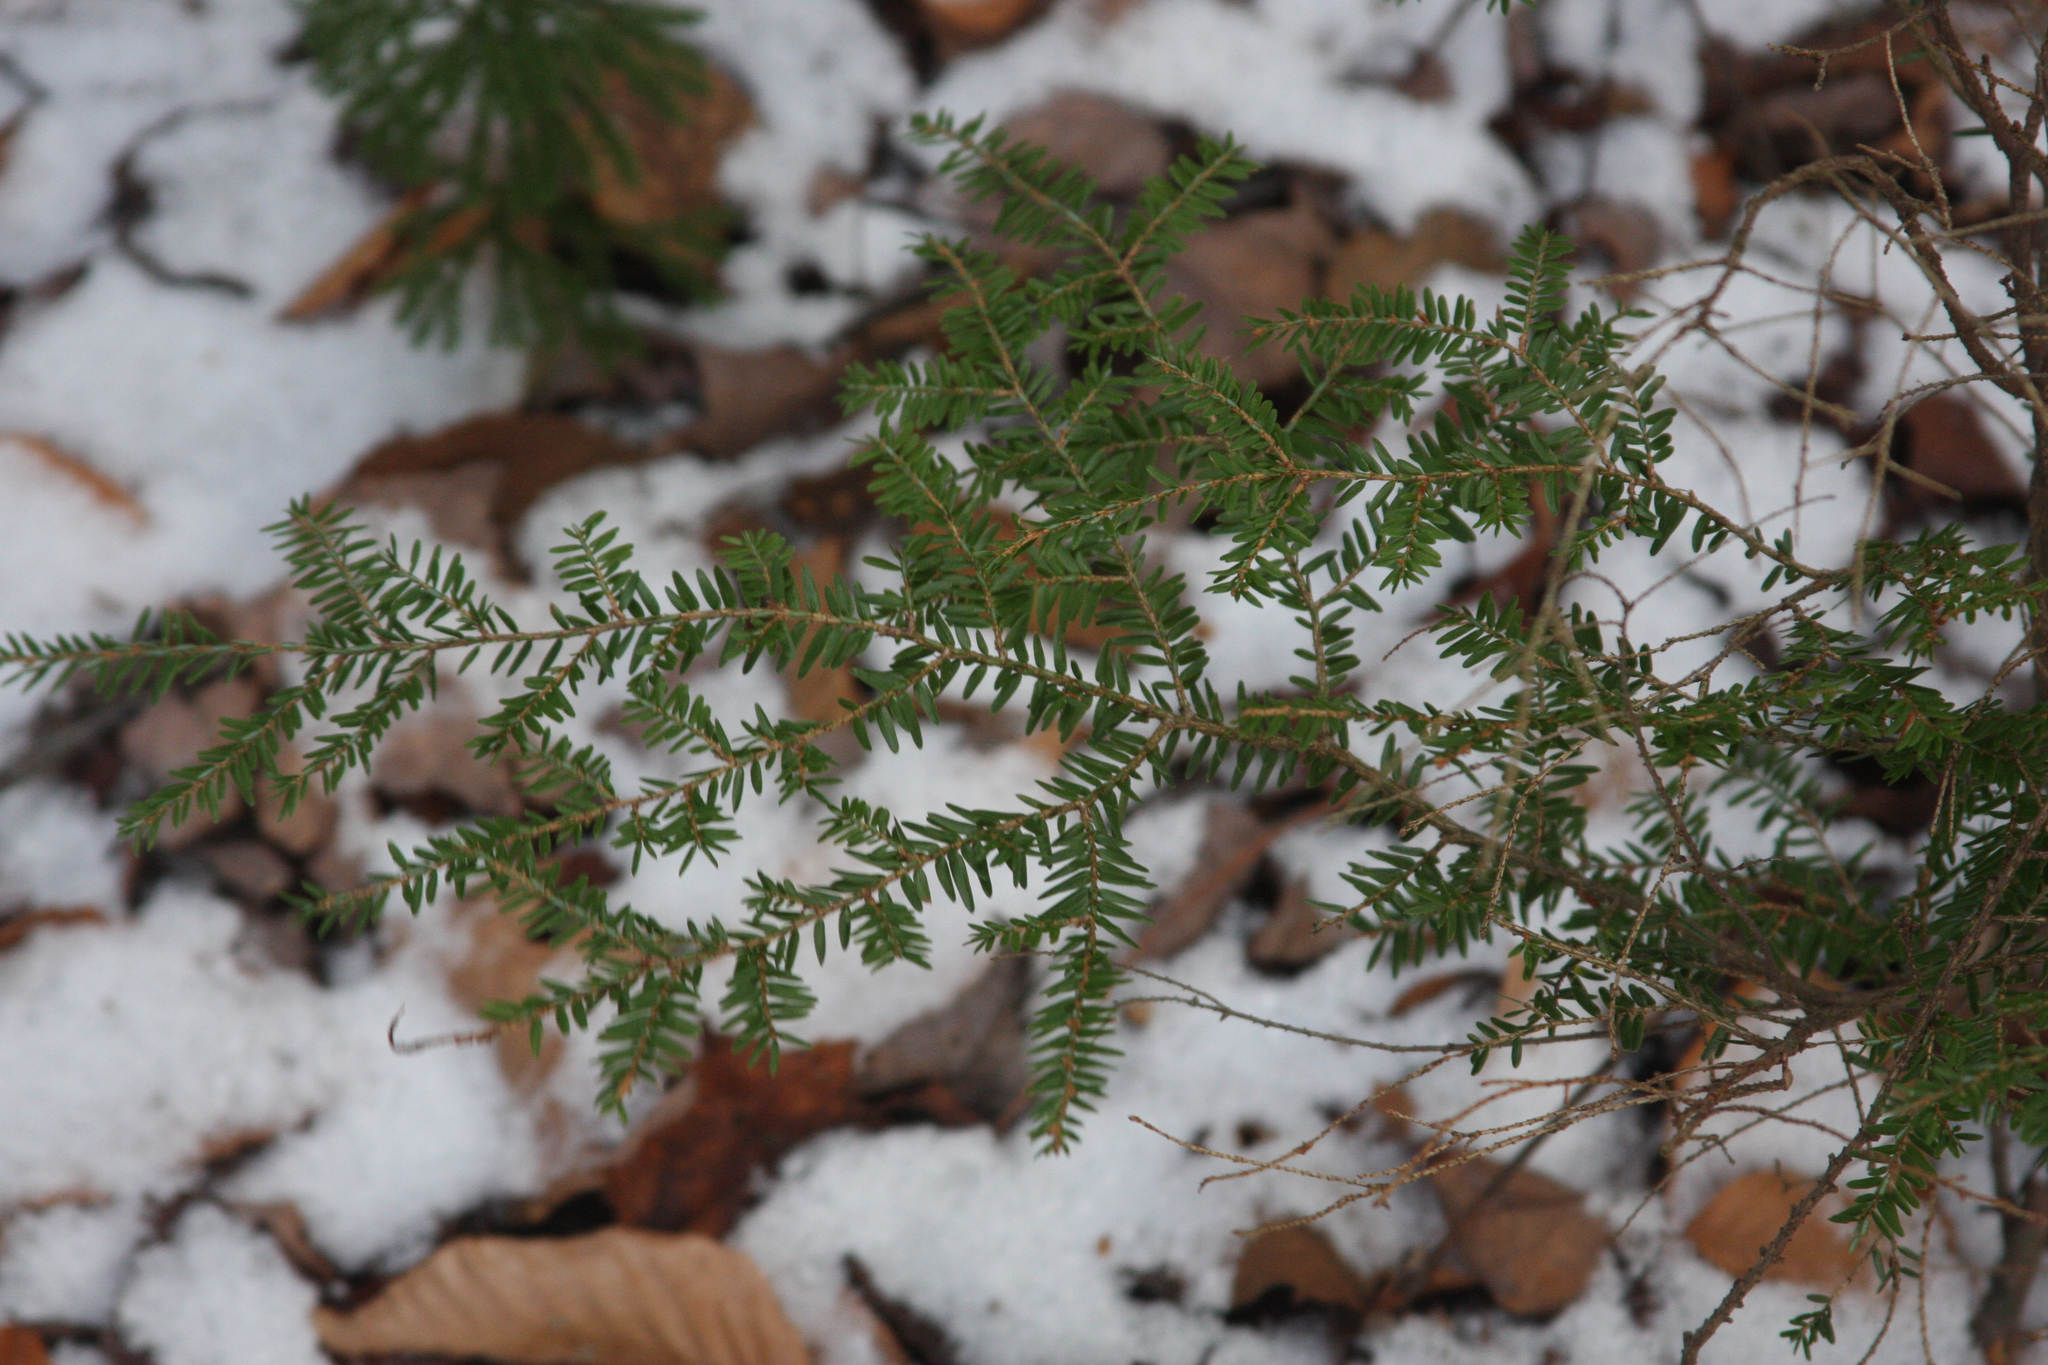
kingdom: Plantae
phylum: Tracheophyta
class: Pinopsida
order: Pinales
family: Pinaceae
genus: Tsuga
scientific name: Tsuga canadensis
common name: Eastern hemlock
